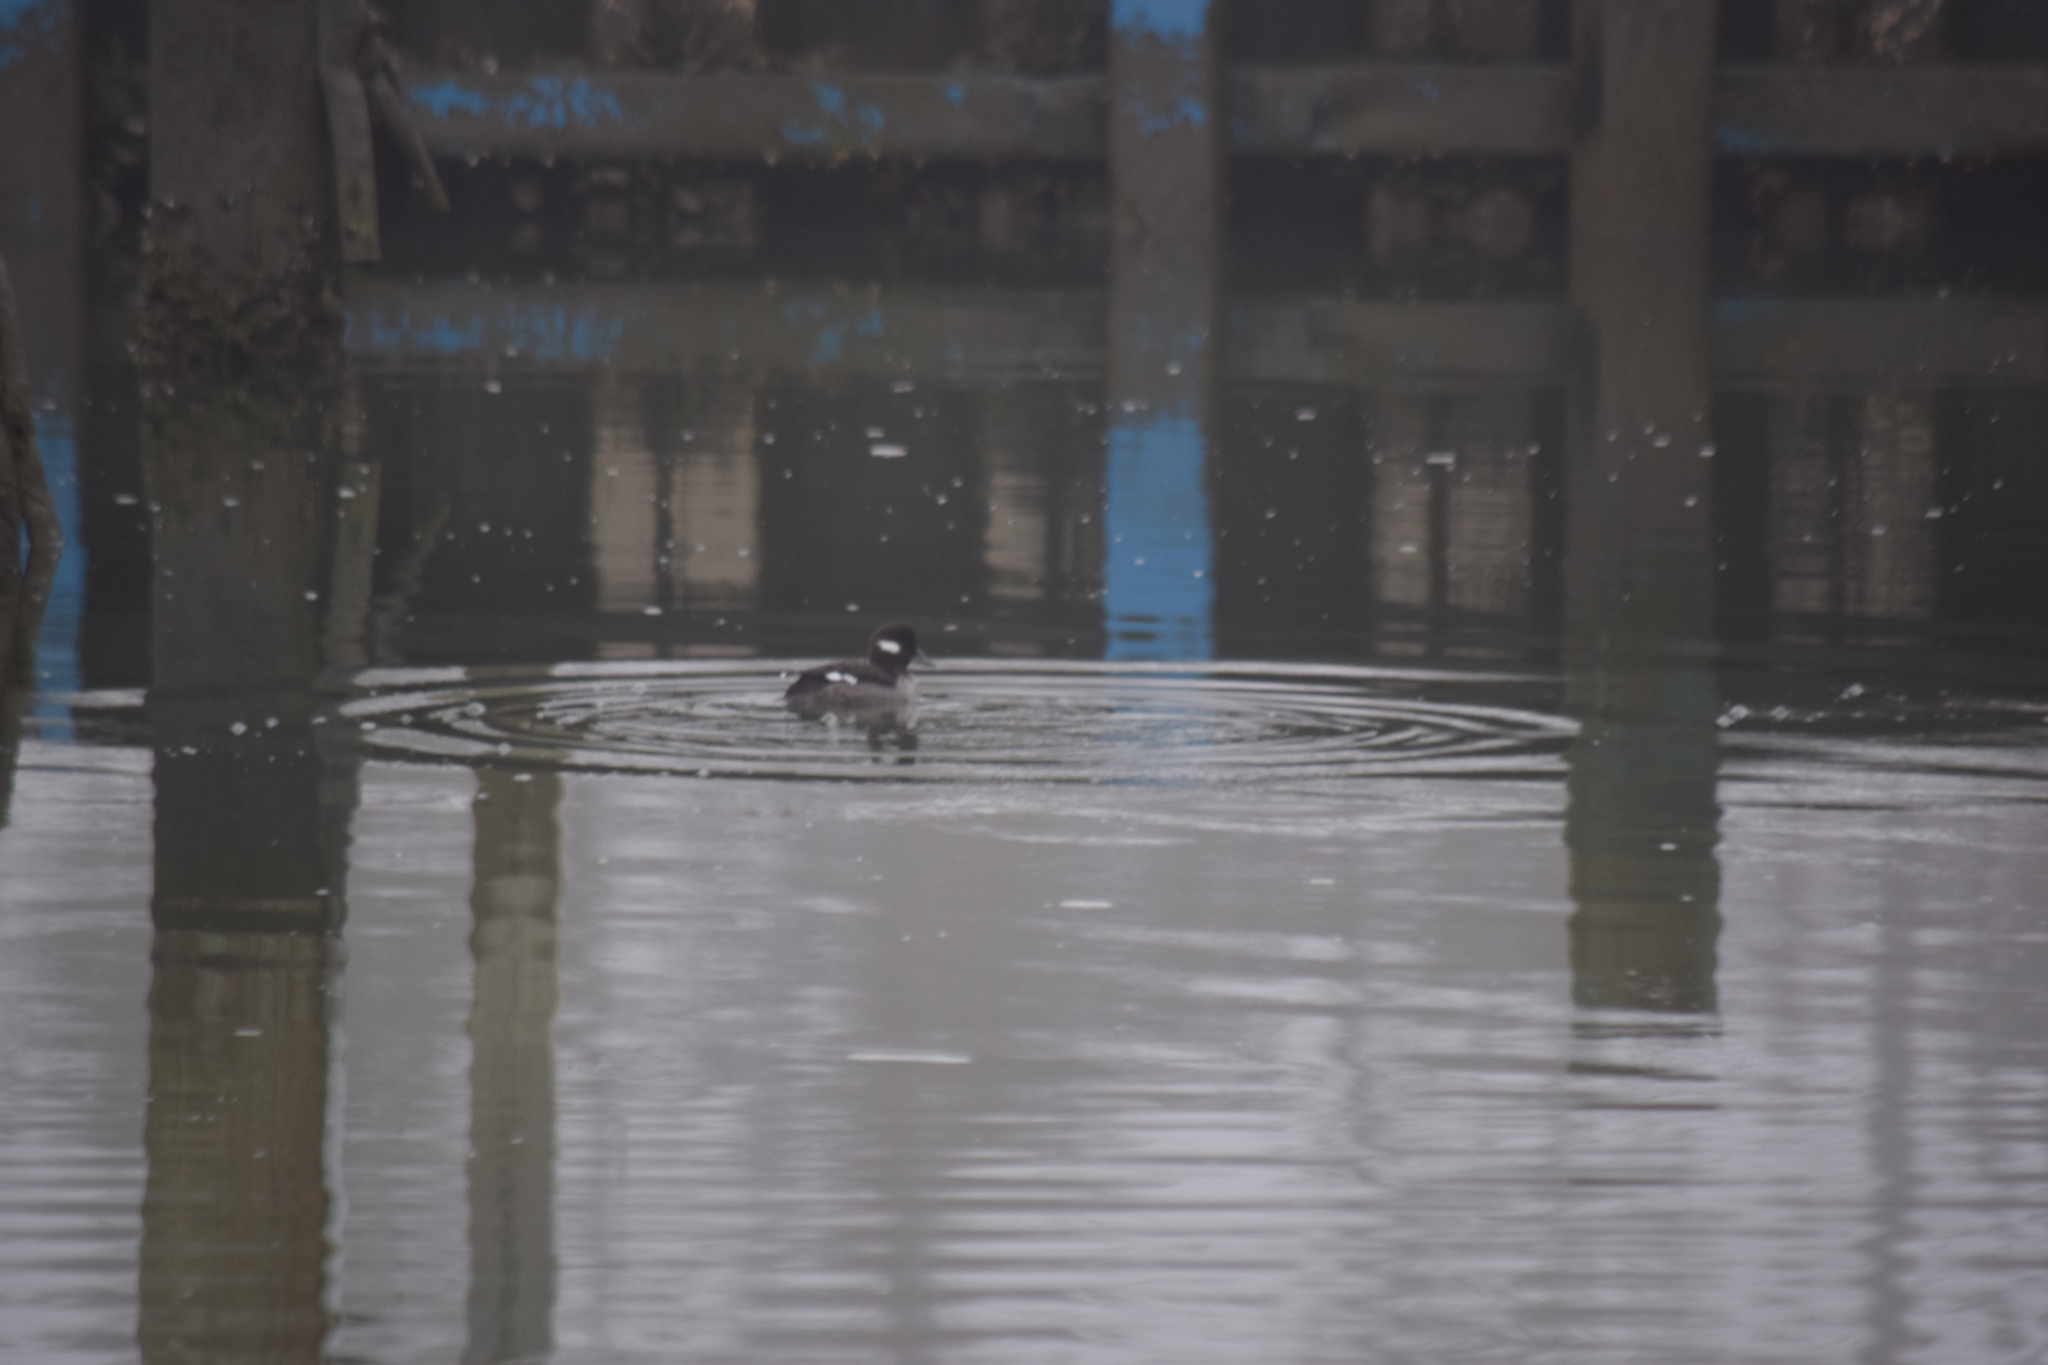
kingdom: Animalia
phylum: Chordata
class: Aves
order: Anseriformes
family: Anatidae
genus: Bucephala
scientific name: Bucephala albeola
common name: Bufflehead
